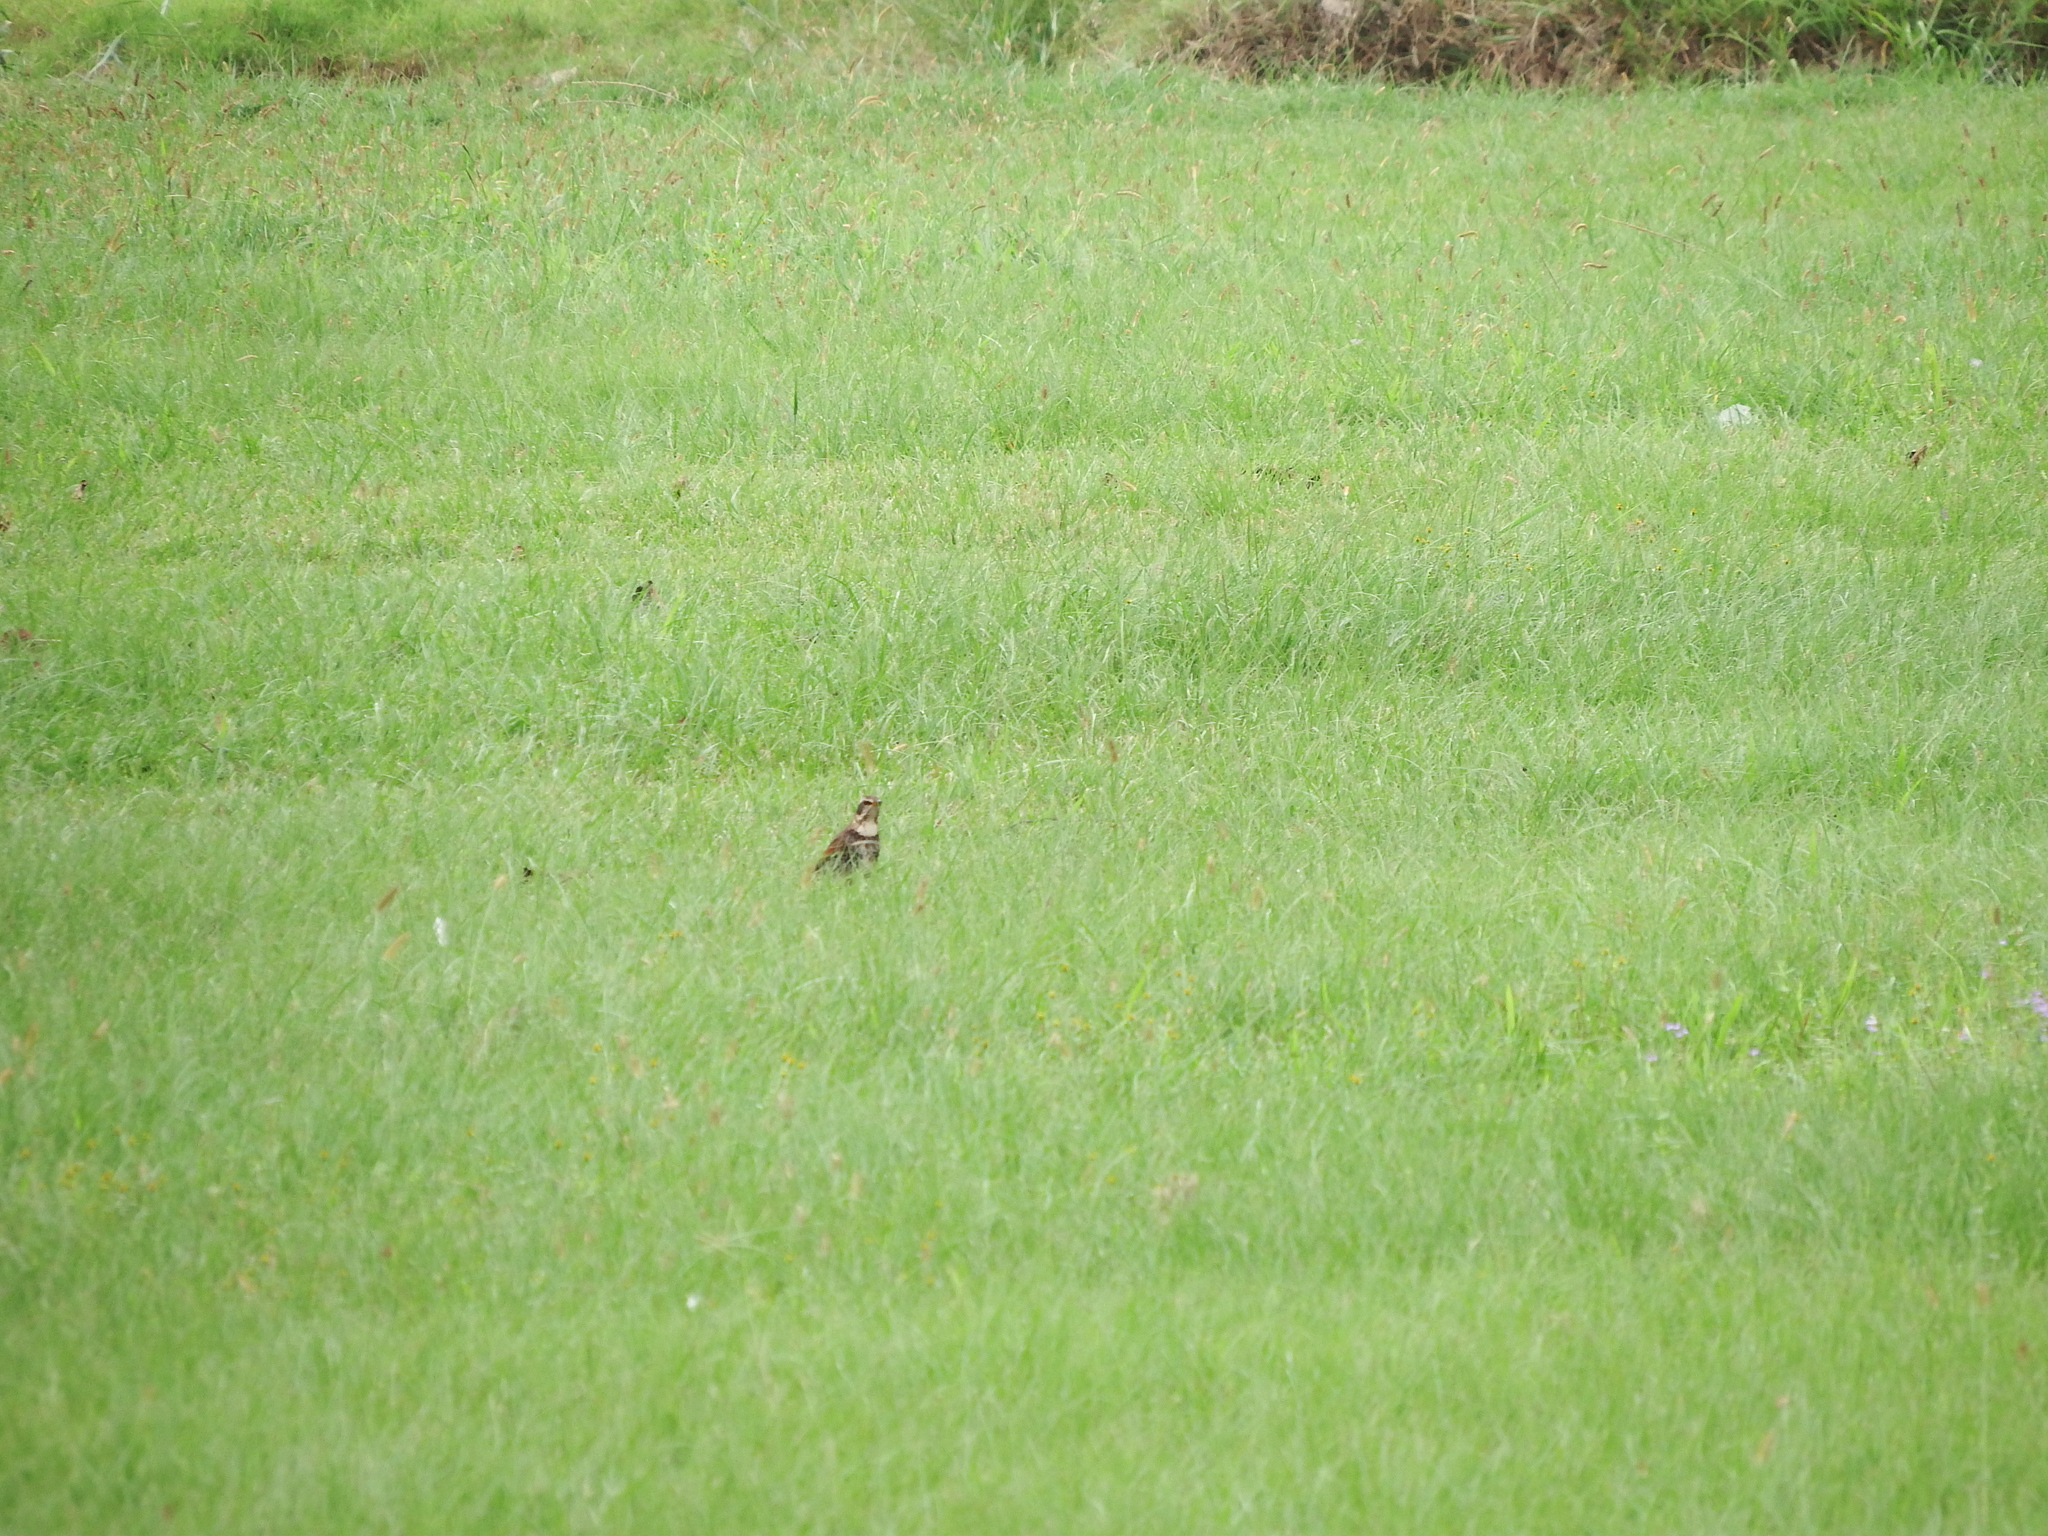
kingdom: Animalia
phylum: Chordata
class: Aves
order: Passeriformes
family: Turdidae
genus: Turdus
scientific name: Turdus eunomus
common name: Dusky thrush
